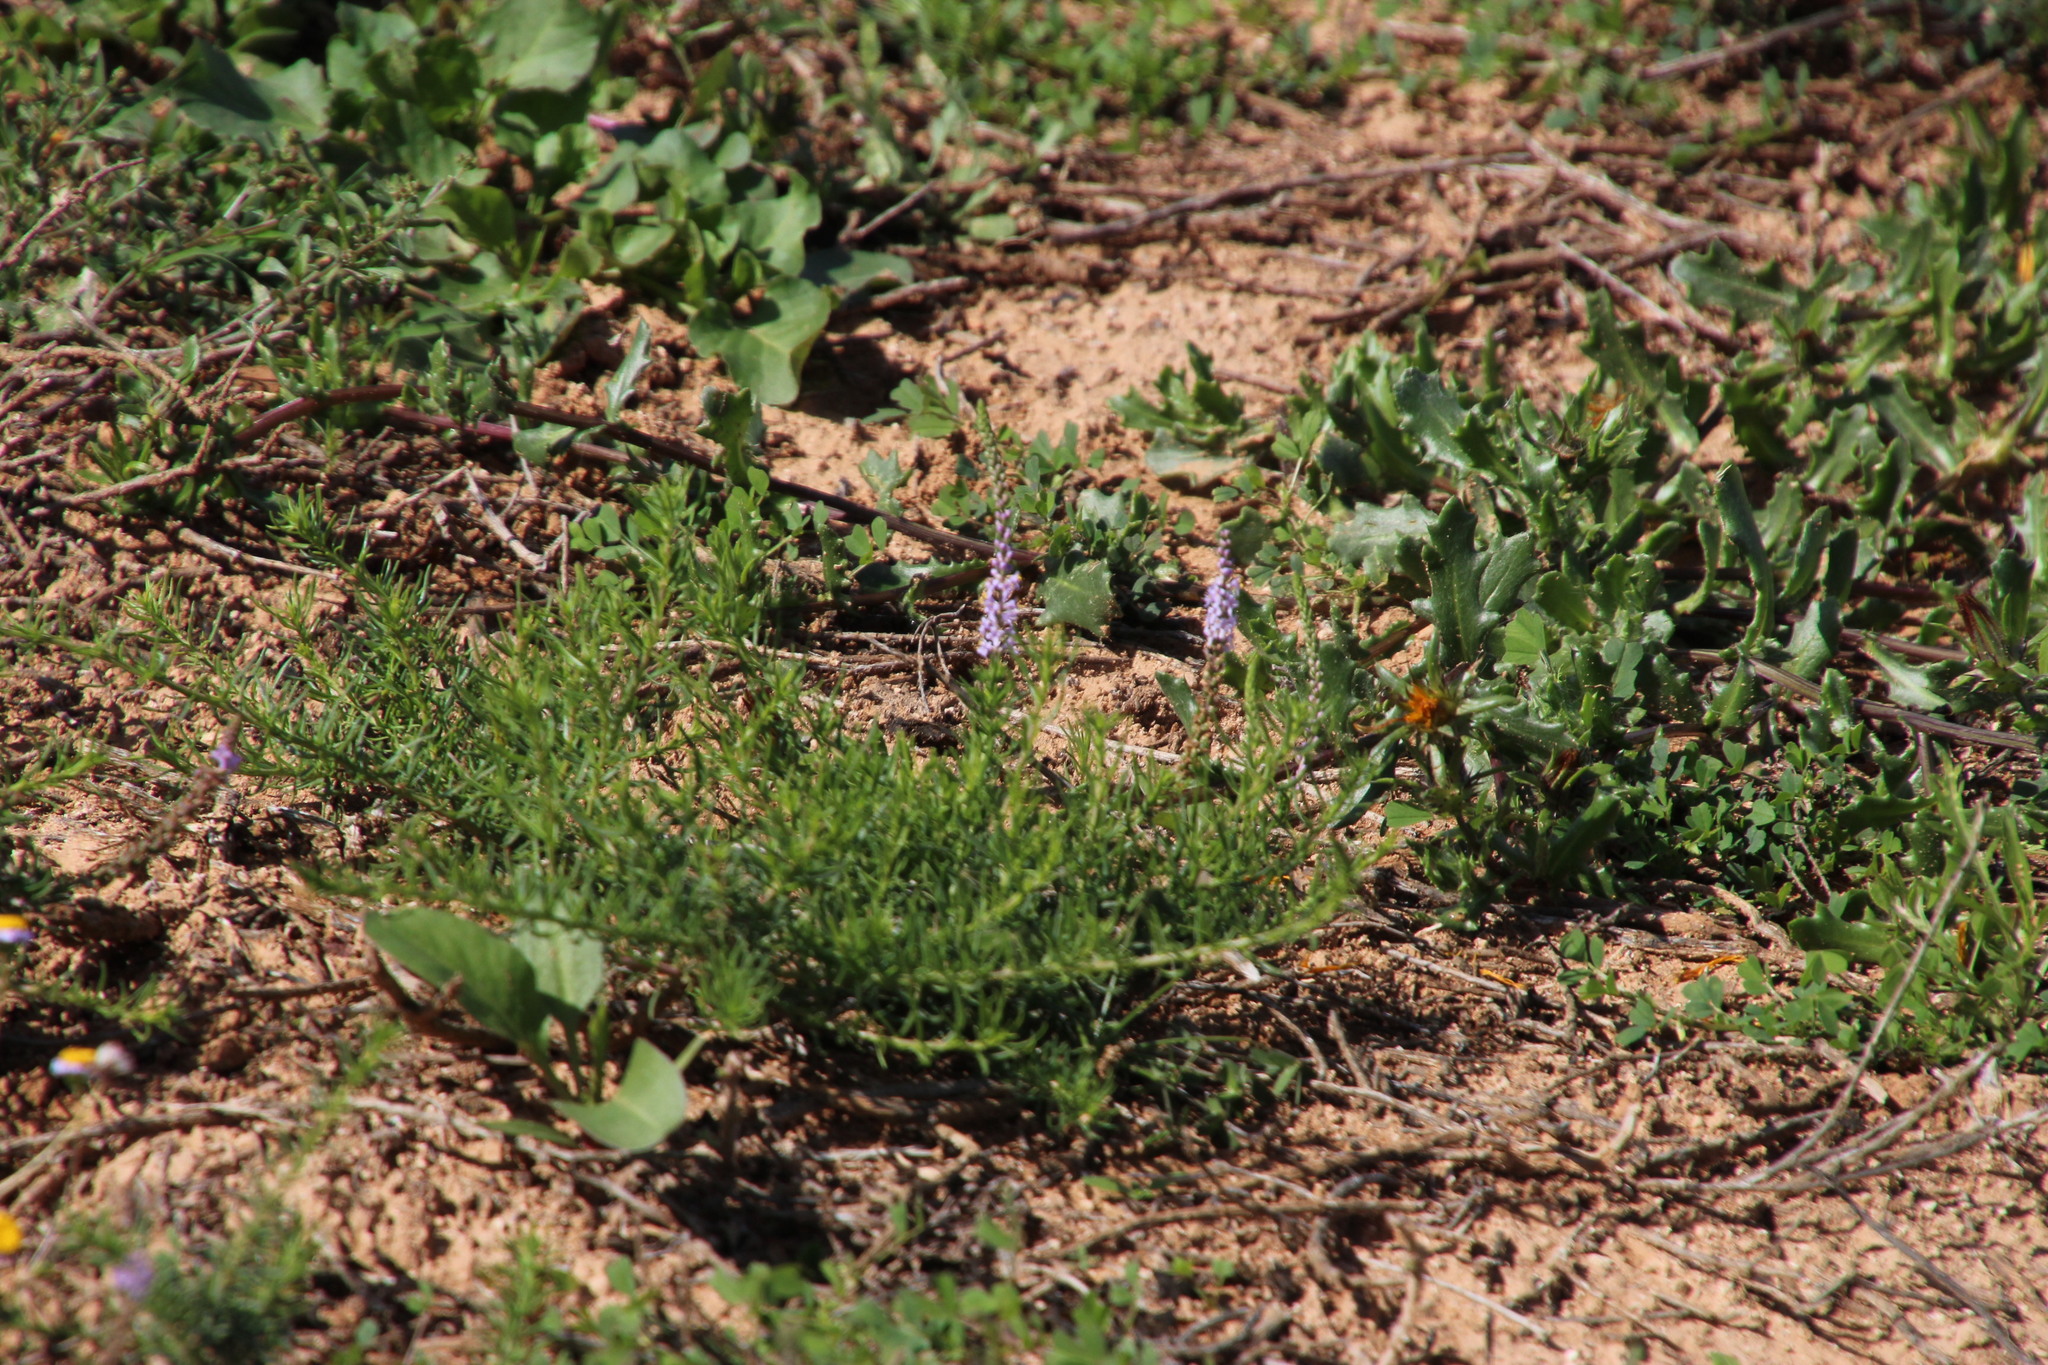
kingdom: Plantae
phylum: Tracheophyta
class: Magnoliopsida
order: Lamiales
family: Scrophulariaceae
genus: Selago
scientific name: Selago geniculata
